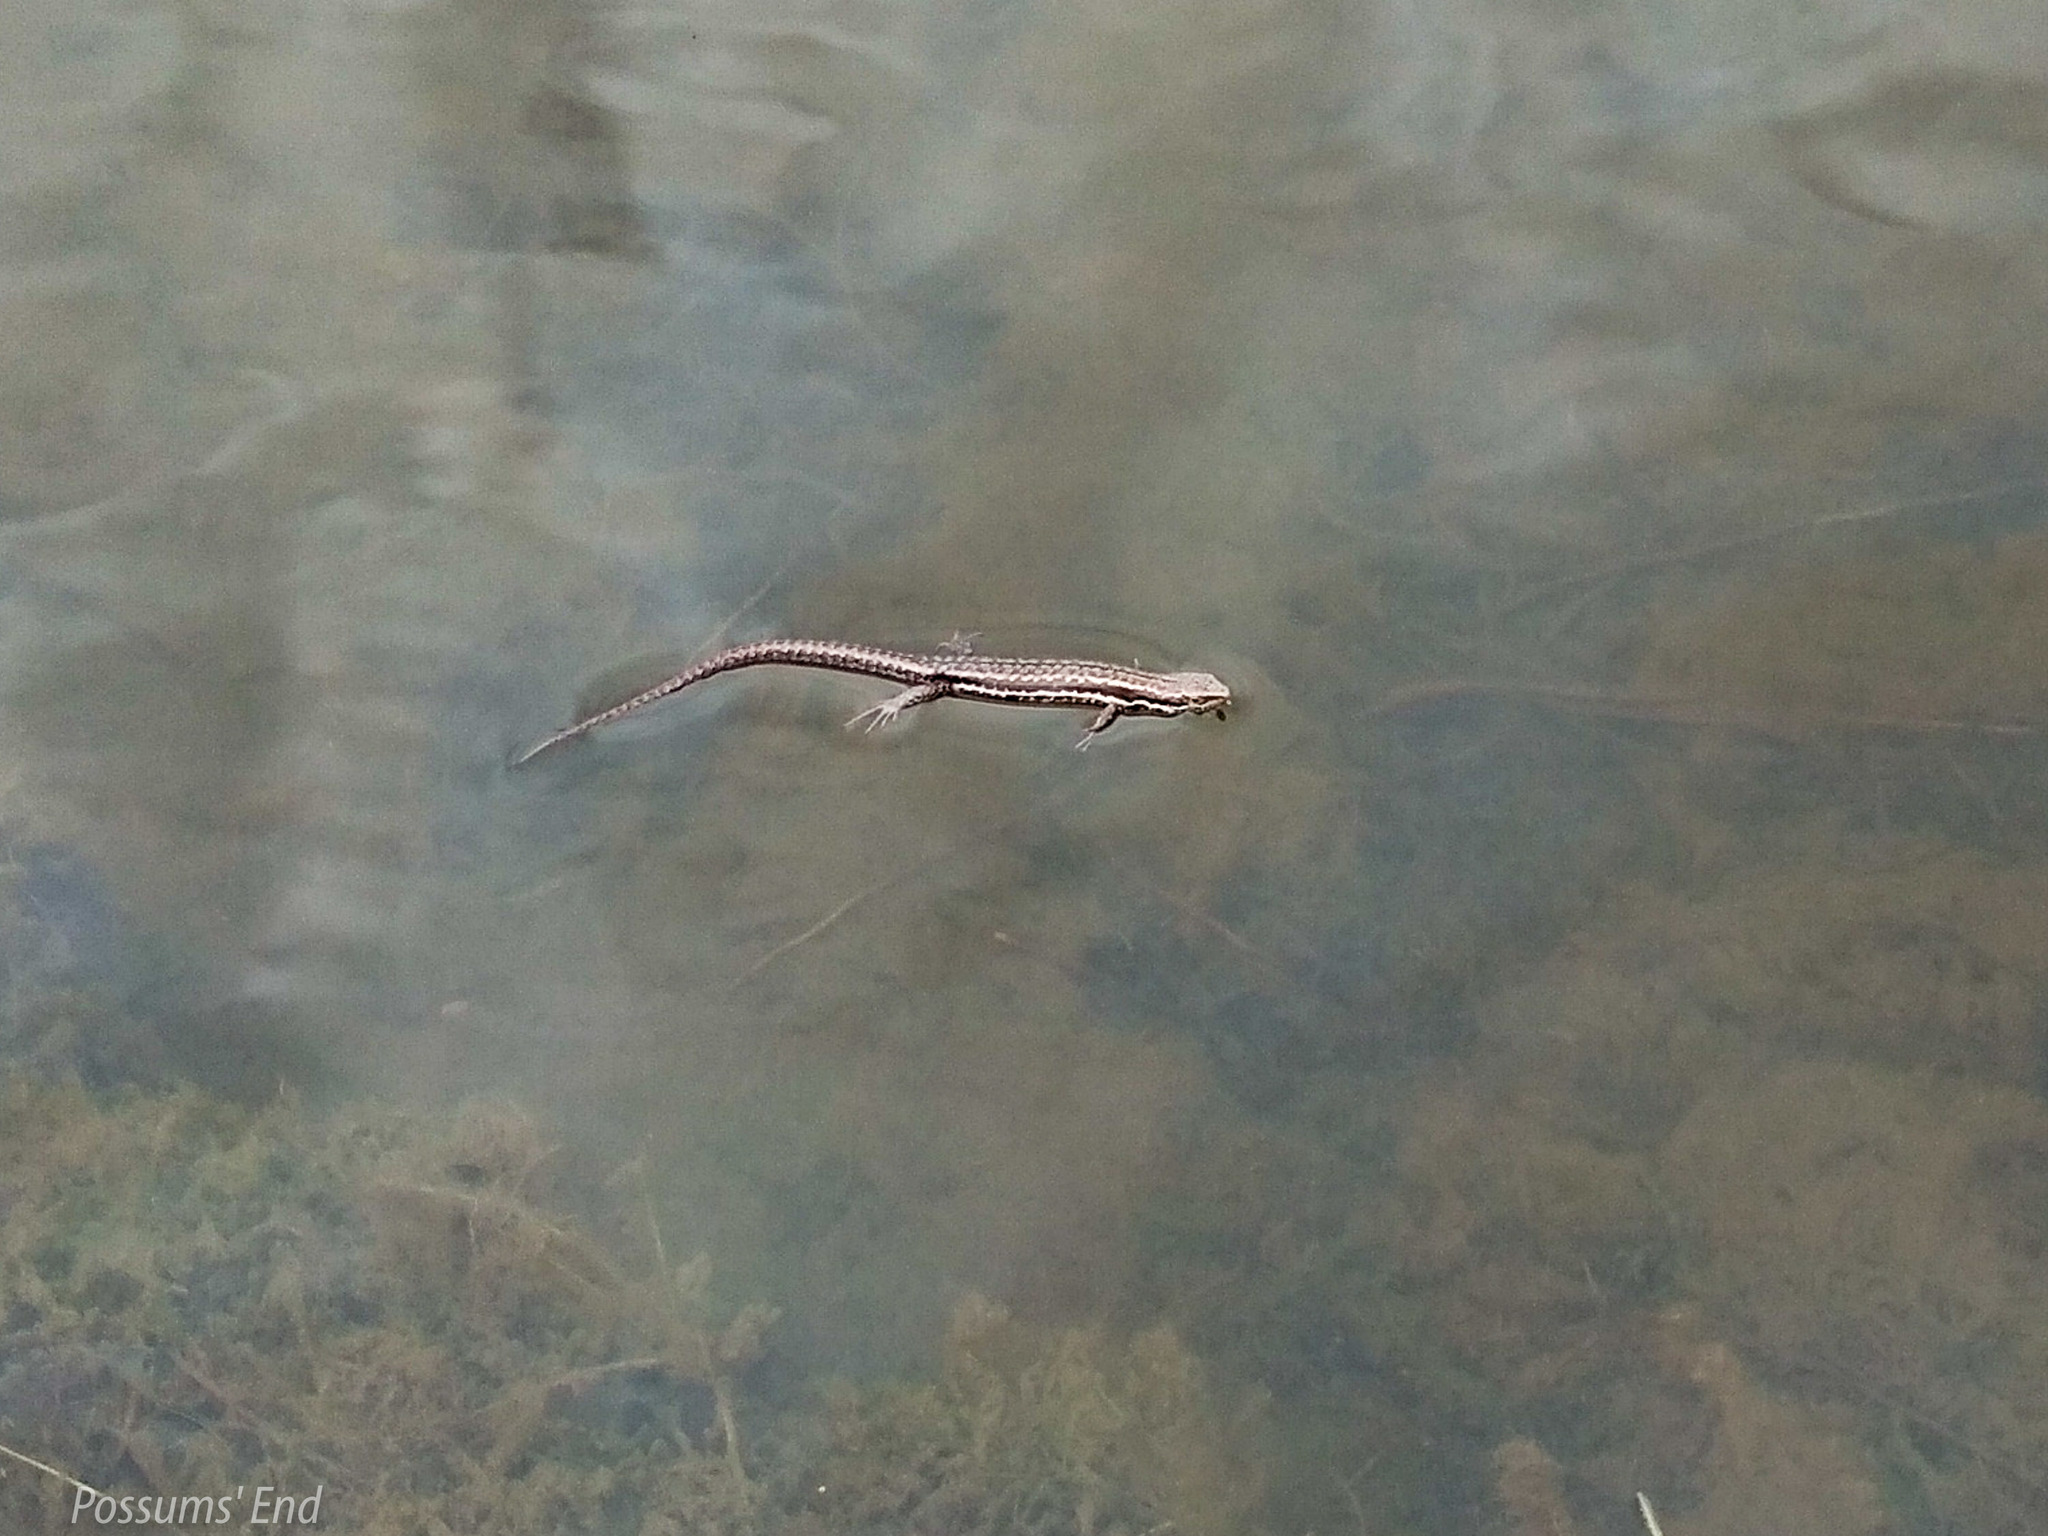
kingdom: Animalia
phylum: Chordata
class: Squamata
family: Scincidae
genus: Oligosoma
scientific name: Oligosoma maccanni
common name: Mccann’s skink
